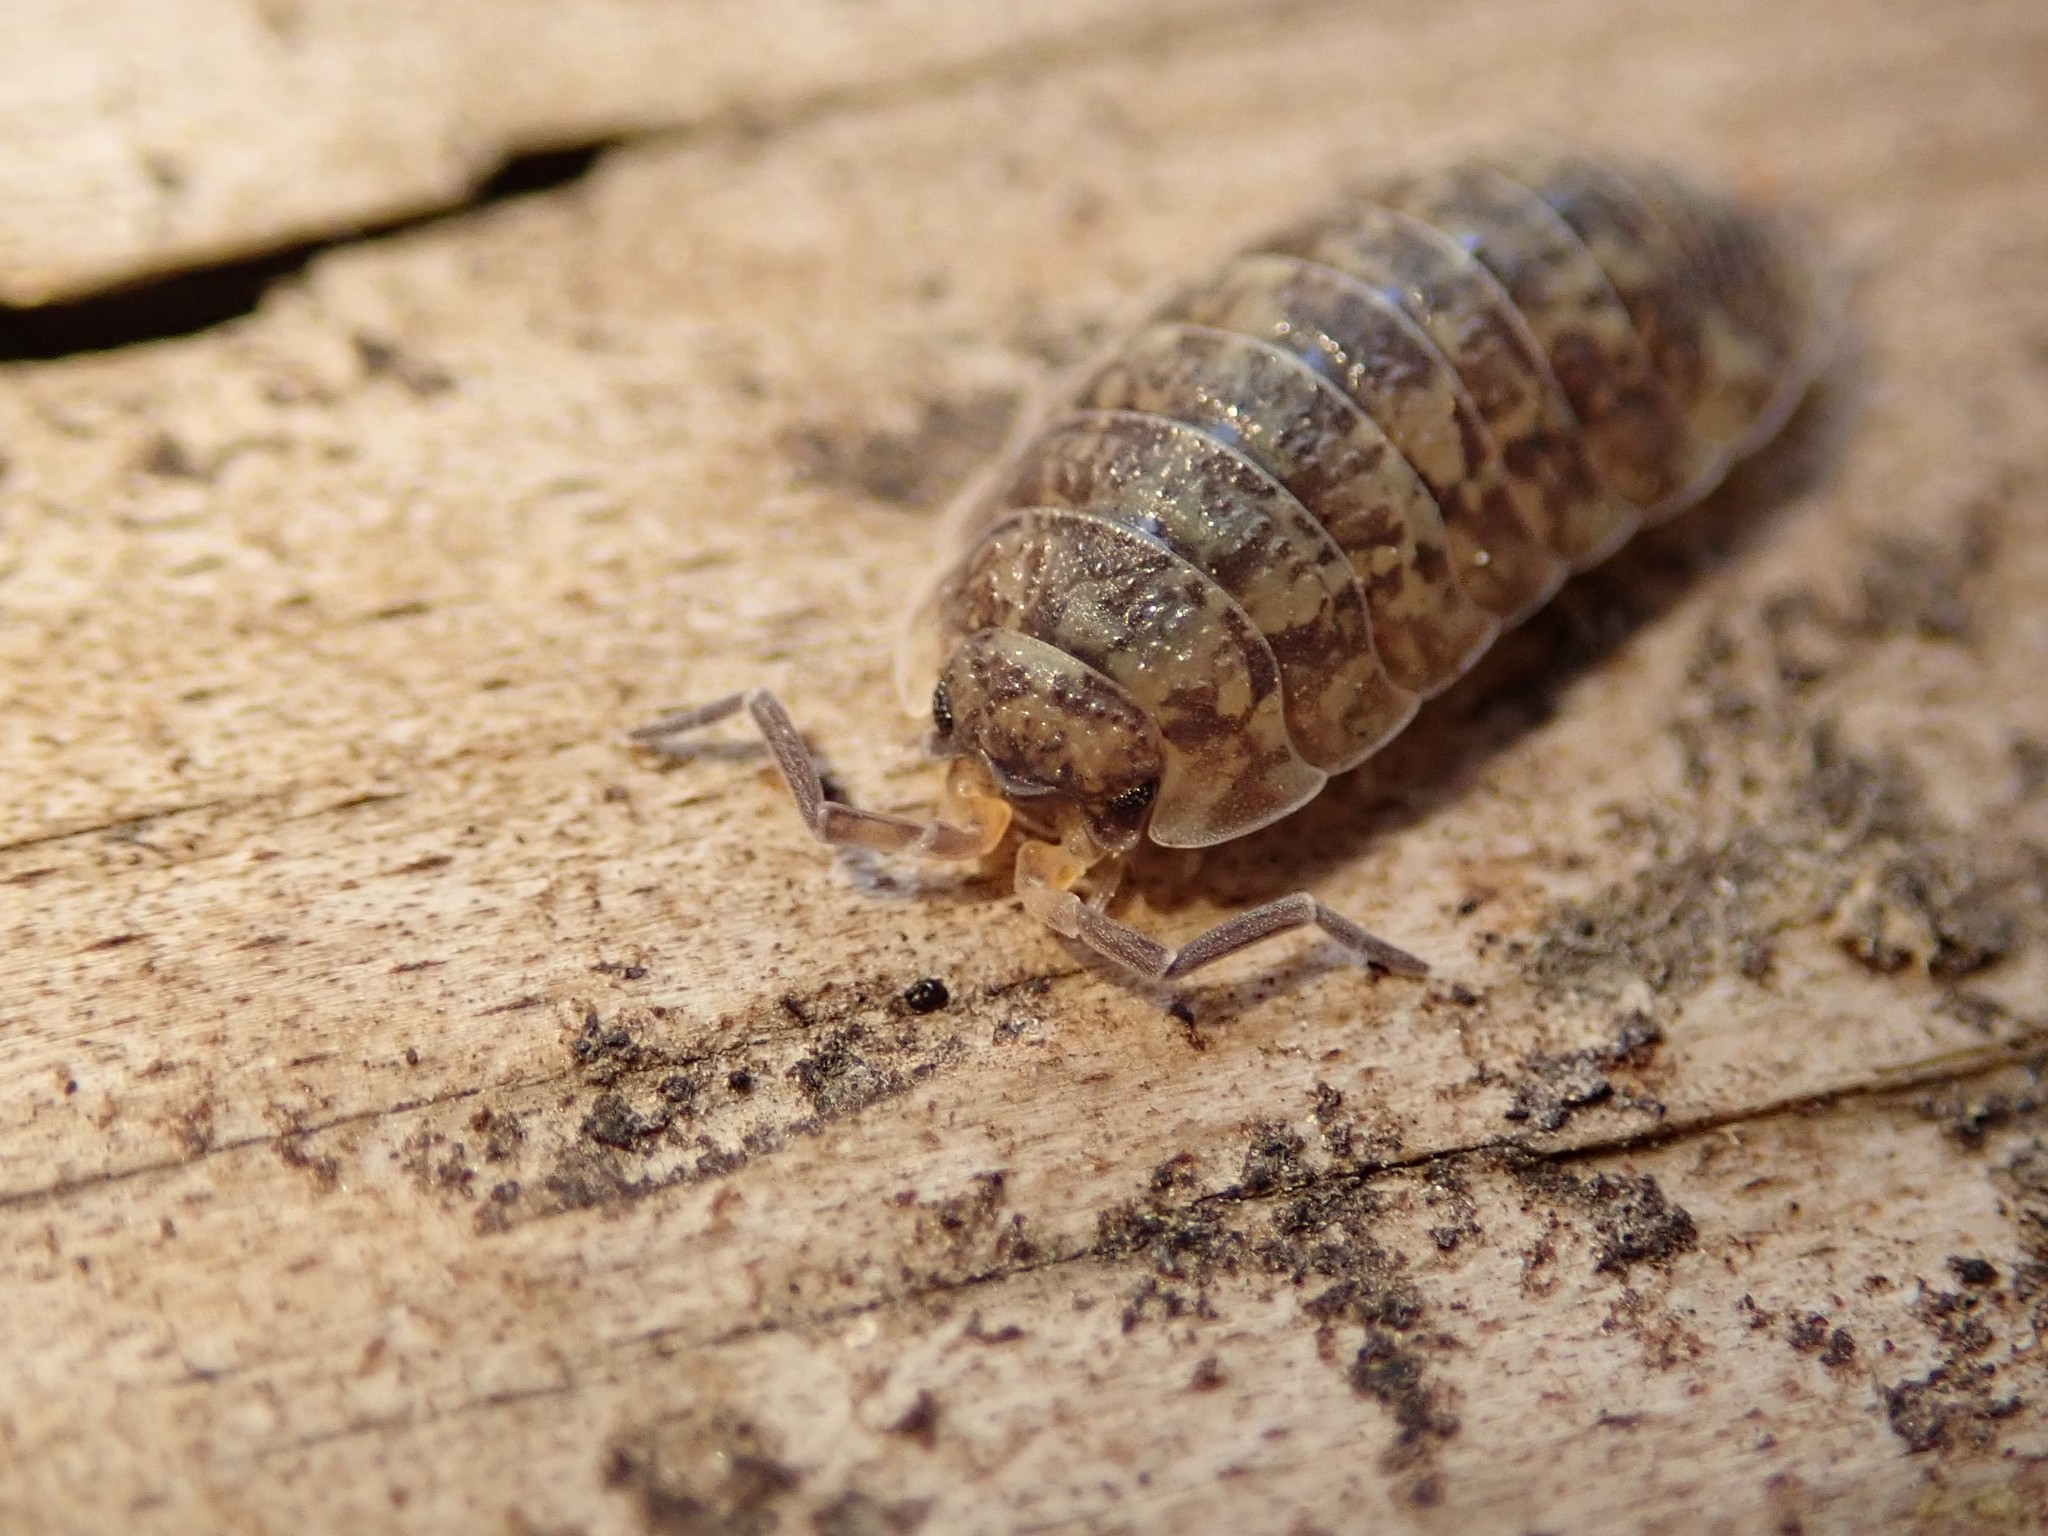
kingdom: Animalia
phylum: Arthropoda
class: Malacostraca
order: Isopoda
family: Porcellionidae
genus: Porcellio
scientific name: Porcellio scaber
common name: Common rough woodlouse
